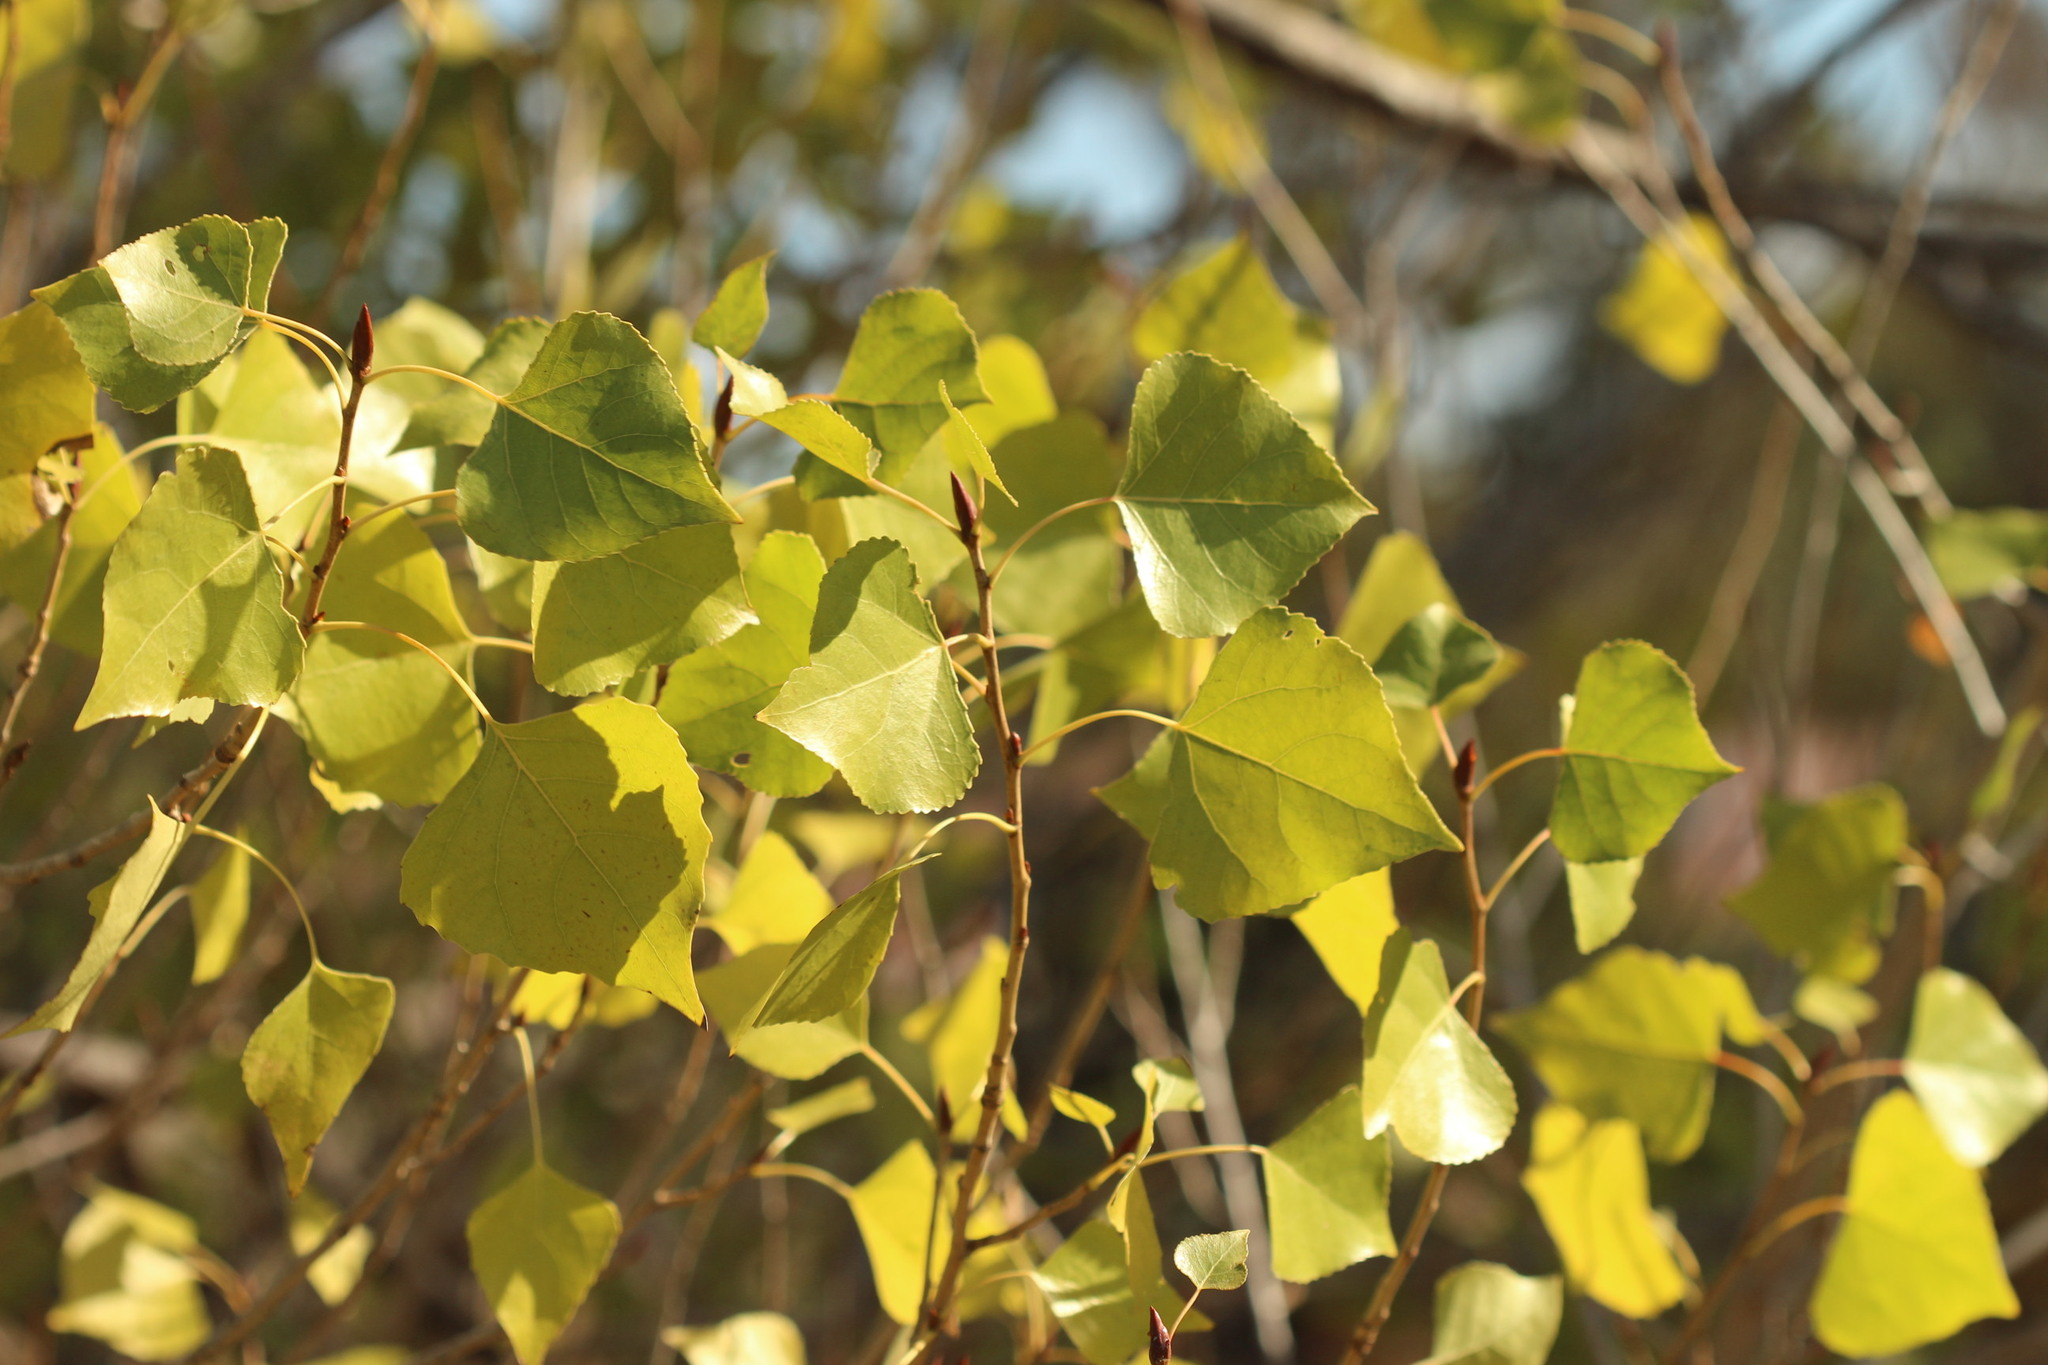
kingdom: Plantae
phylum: Tracheophyta
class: Magnoliopsida
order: Malpighiales
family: Salicaceae
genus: Populus
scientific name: Populus fremontii
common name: Fremont's cottonwood
